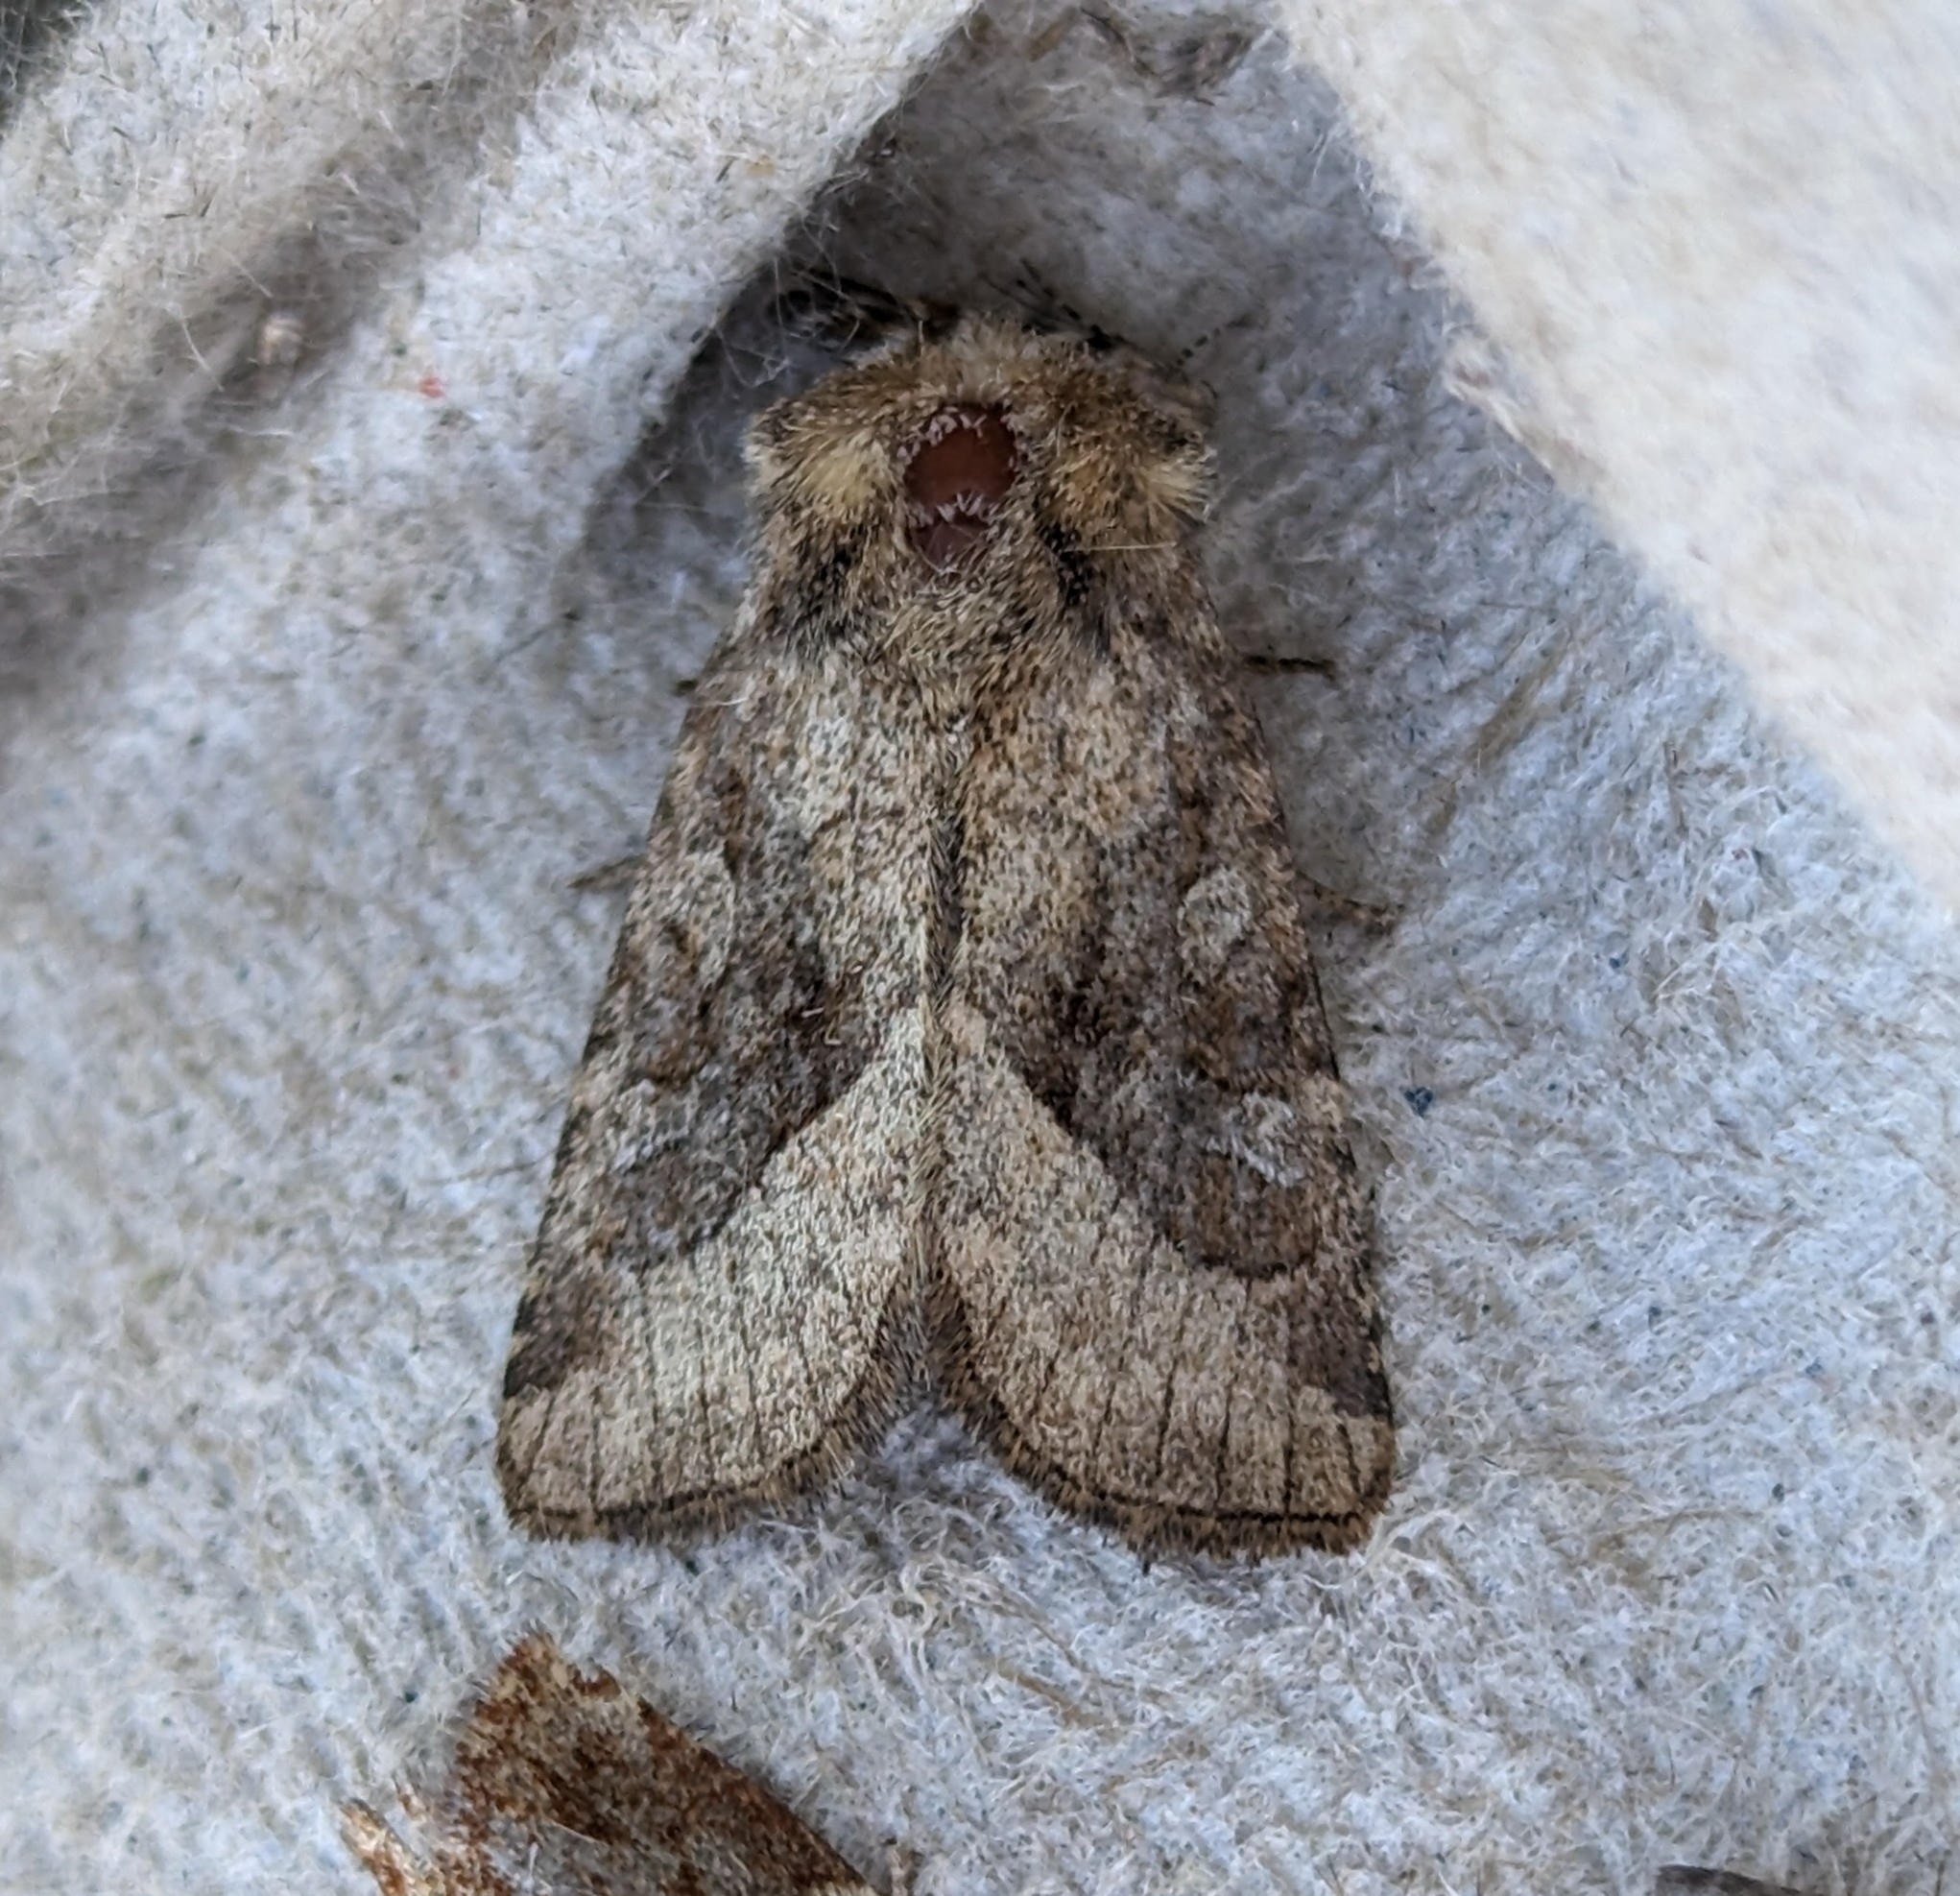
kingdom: Animalia
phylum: Arthropoda
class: Insecta
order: Lepidoptera
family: Noctuidae
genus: Lacinipolia
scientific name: Lacinipolia lorea
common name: Bridled arches moth
